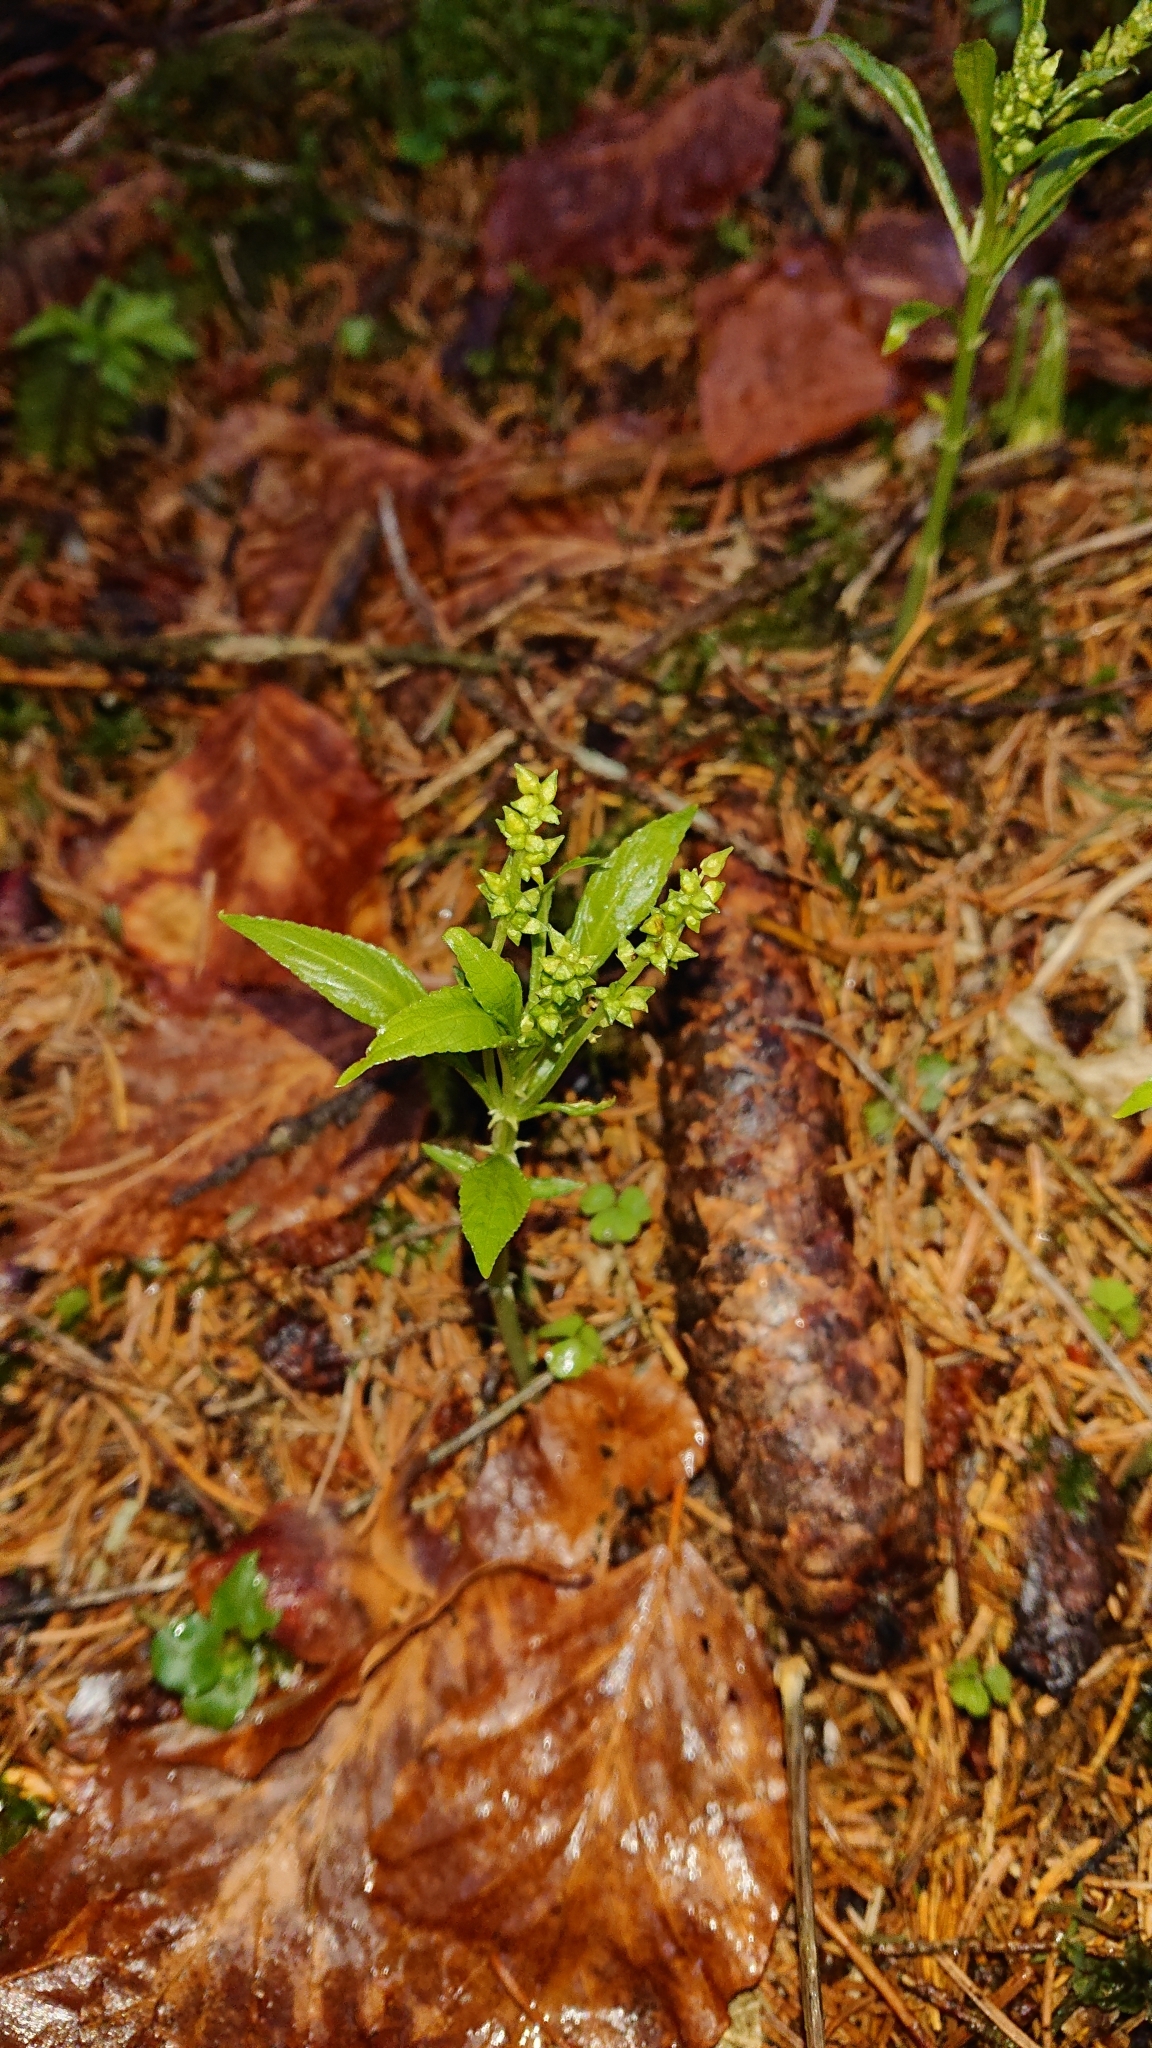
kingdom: Plantae
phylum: Tracheophyta
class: Magnoliopsida
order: Malpighiales
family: Euphorbiaceae
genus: Mercurialis
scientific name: Mercurialis perennis
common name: Dog mercury
